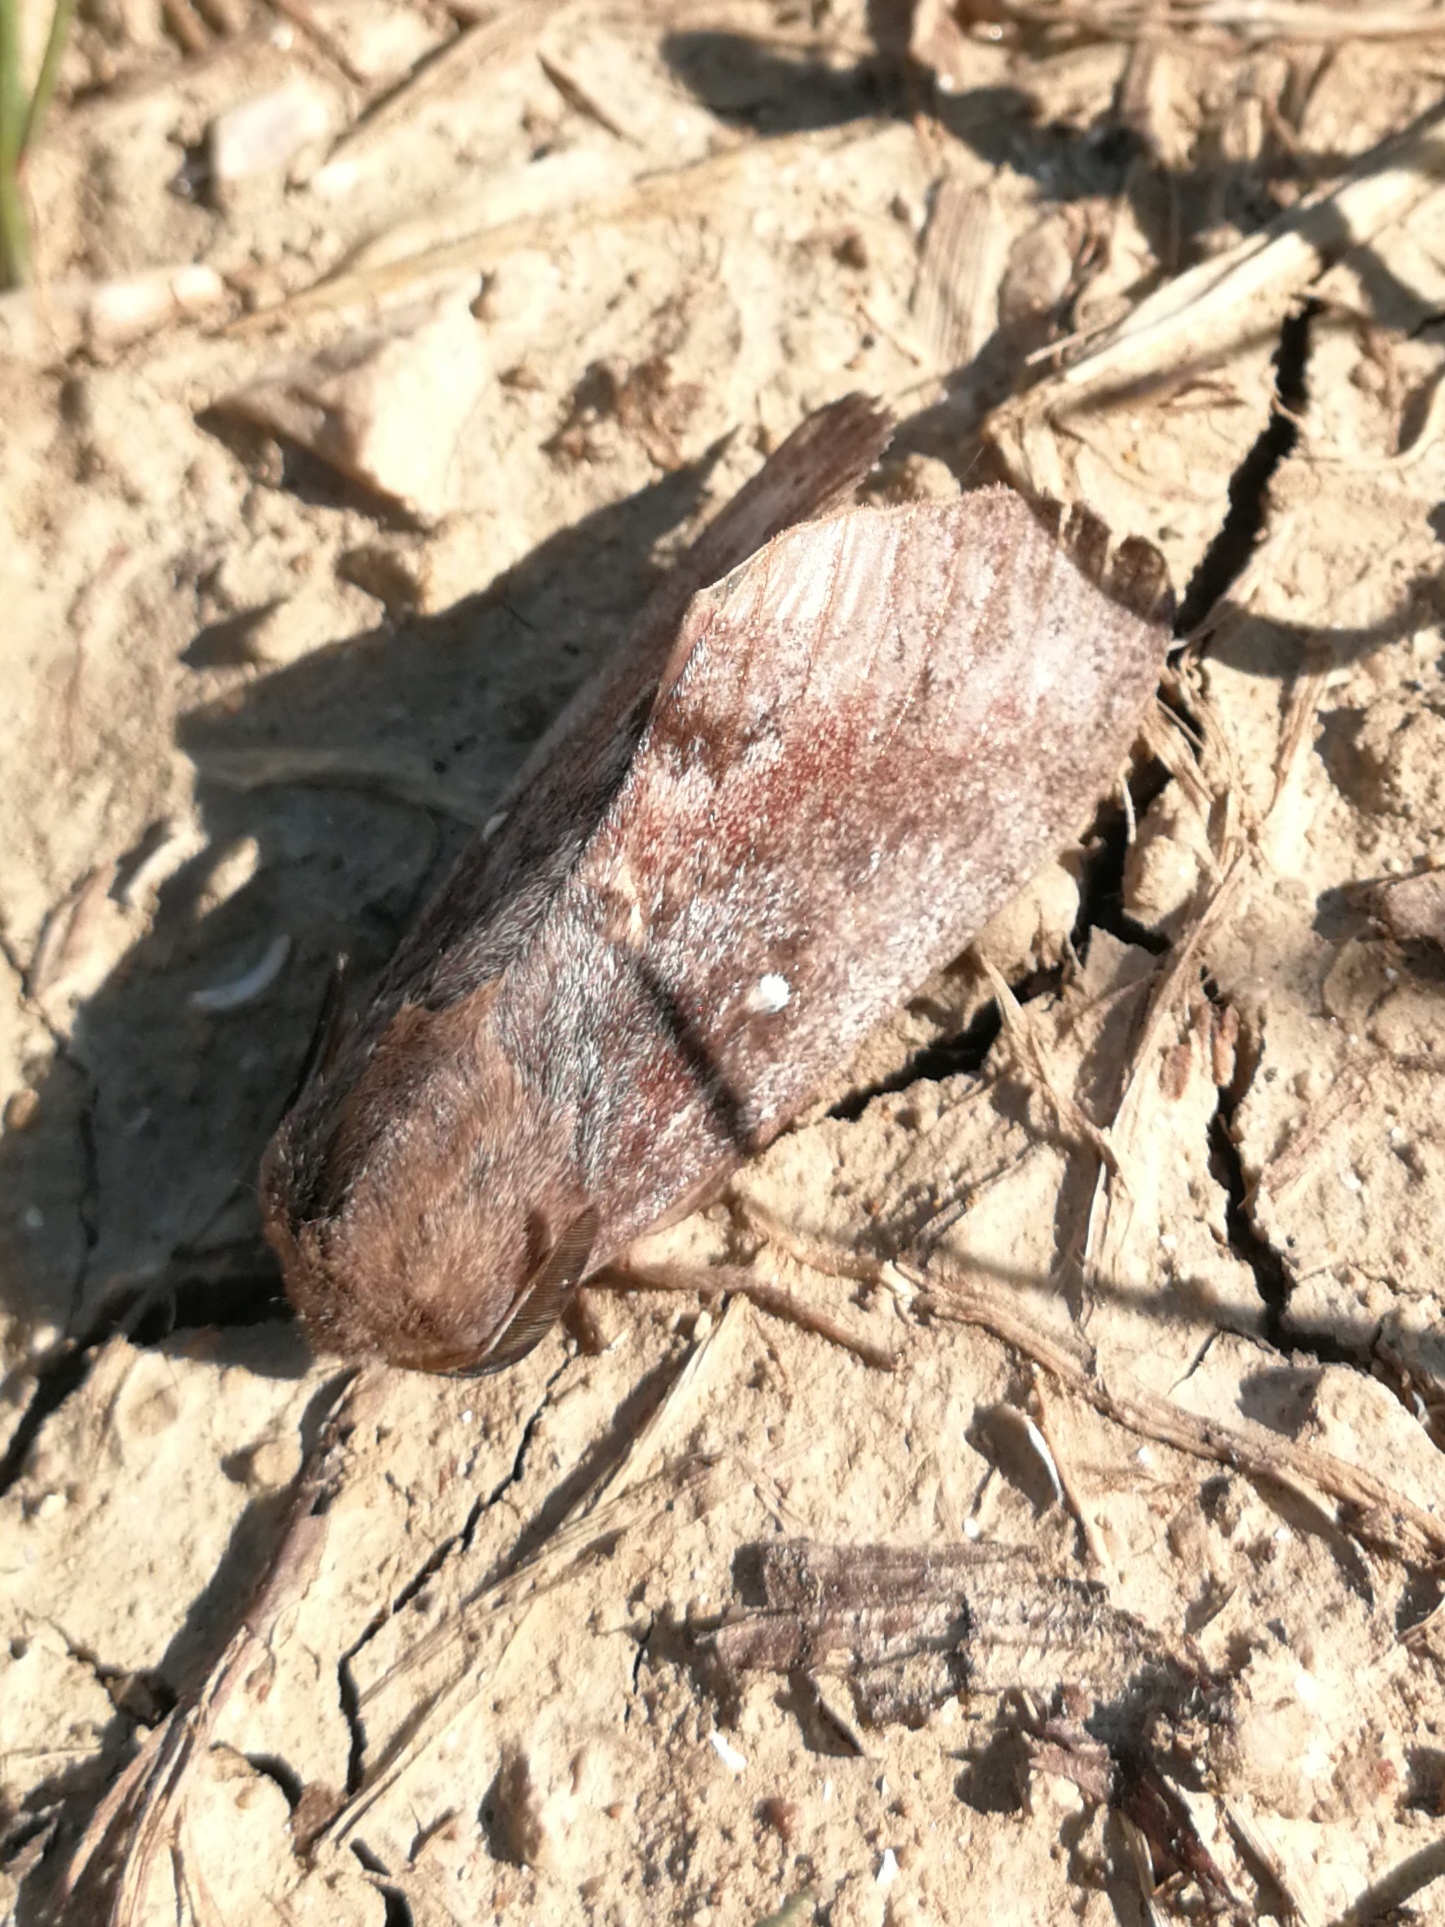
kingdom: Animalia
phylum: Arthropoda
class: Insecta
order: Lepidoptera
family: Lasiocampidae
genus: Dendrolimus
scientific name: Dendrolimus pini
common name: Pine-tree lappet
